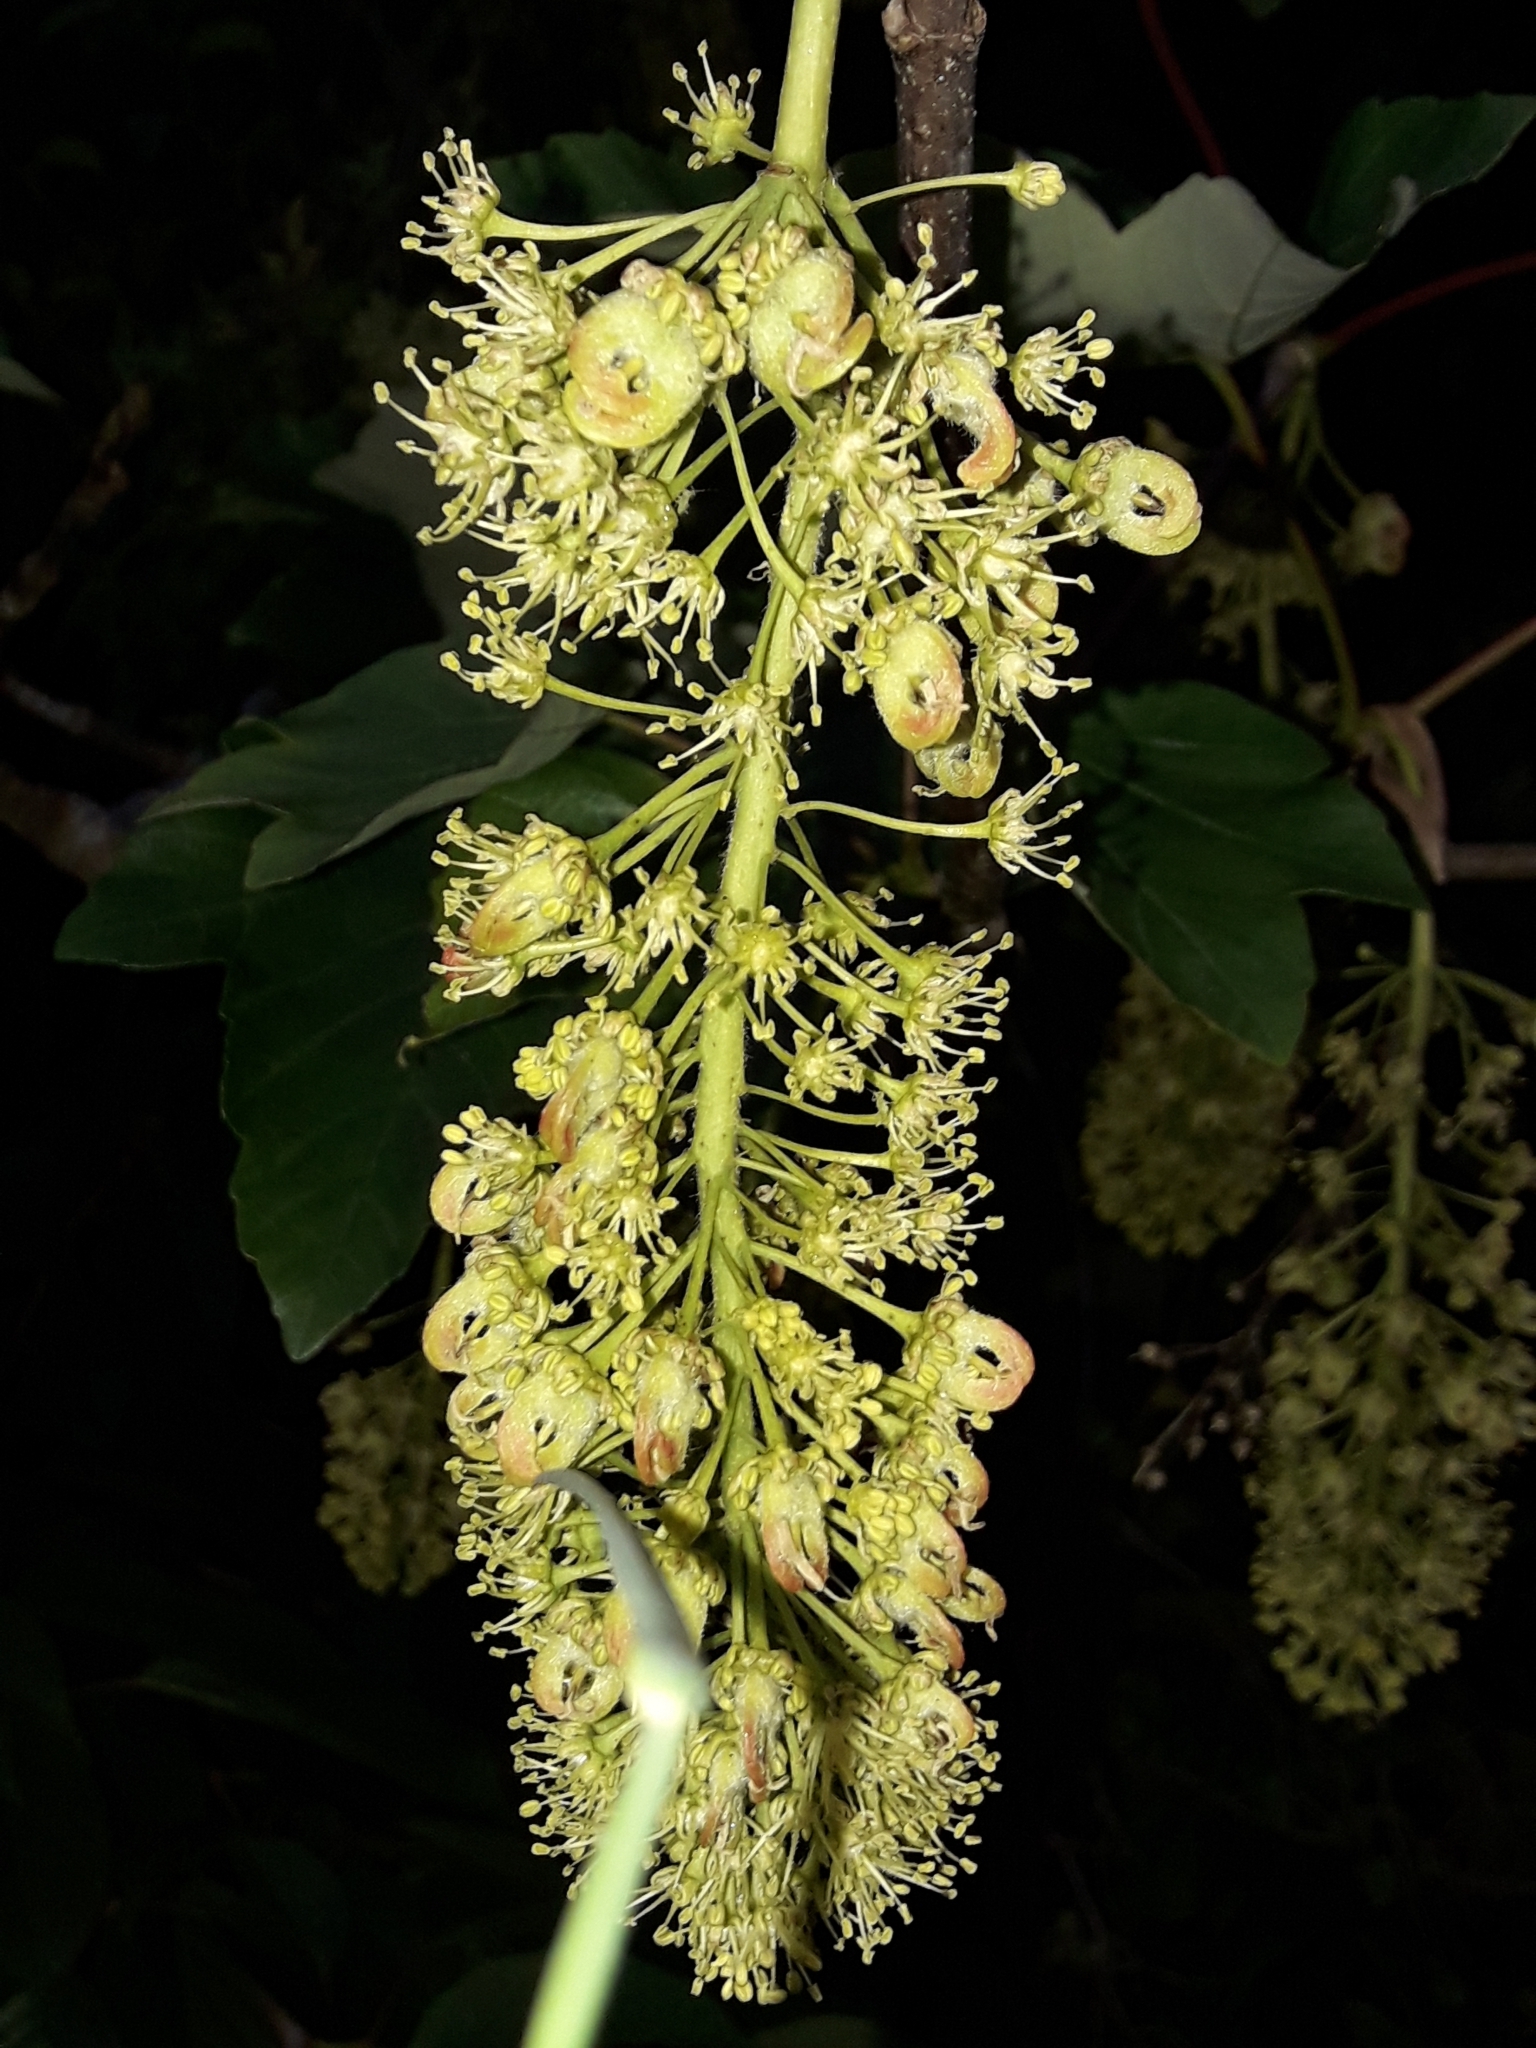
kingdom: Plantae
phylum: Tracheophyta
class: Magnoliopsida
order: Sapindales
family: Sapindaceae
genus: Acer
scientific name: Acer pseudoplatanus
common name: Sycamore
